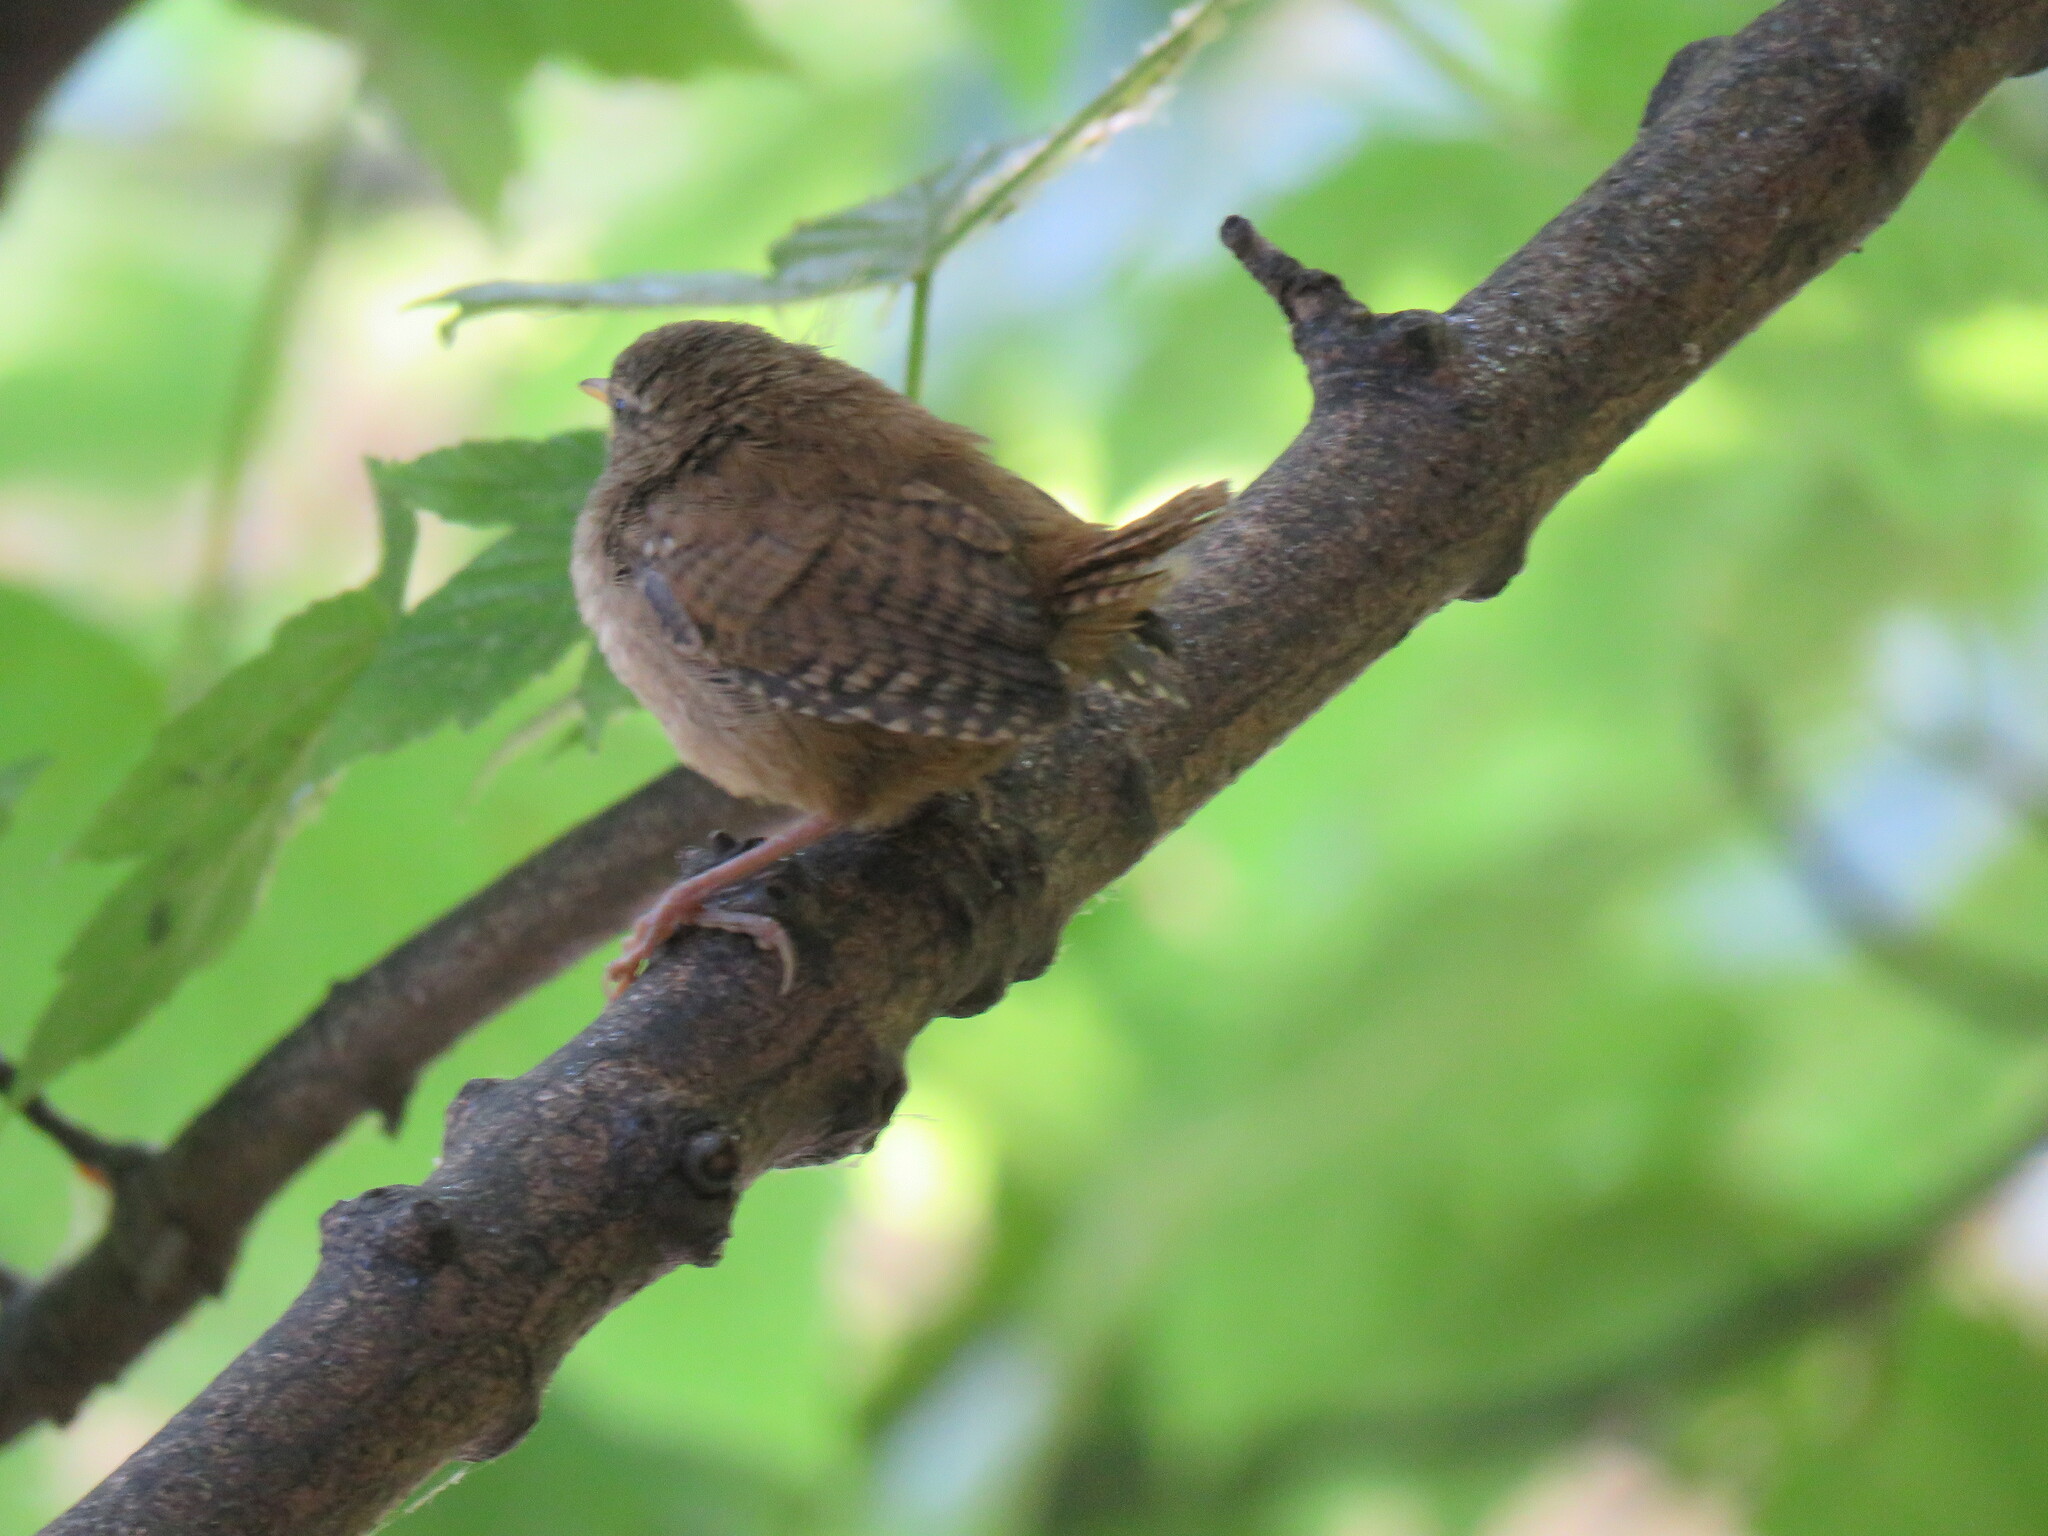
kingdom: Animalia
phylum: Chordata
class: Aves
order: Passeriformes
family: Troglodytidae
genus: Troglodytes
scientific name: Troglodytes troglodytes
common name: Eurasian wren
